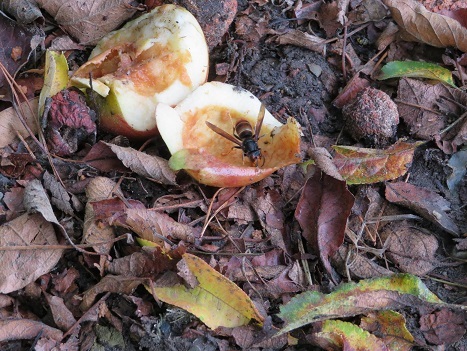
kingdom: Animalia
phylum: Arthropoda
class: Insecta
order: Hymenoptera
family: Vespidae
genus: Vespa
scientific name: Vespa velutina
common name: Asian hornet
